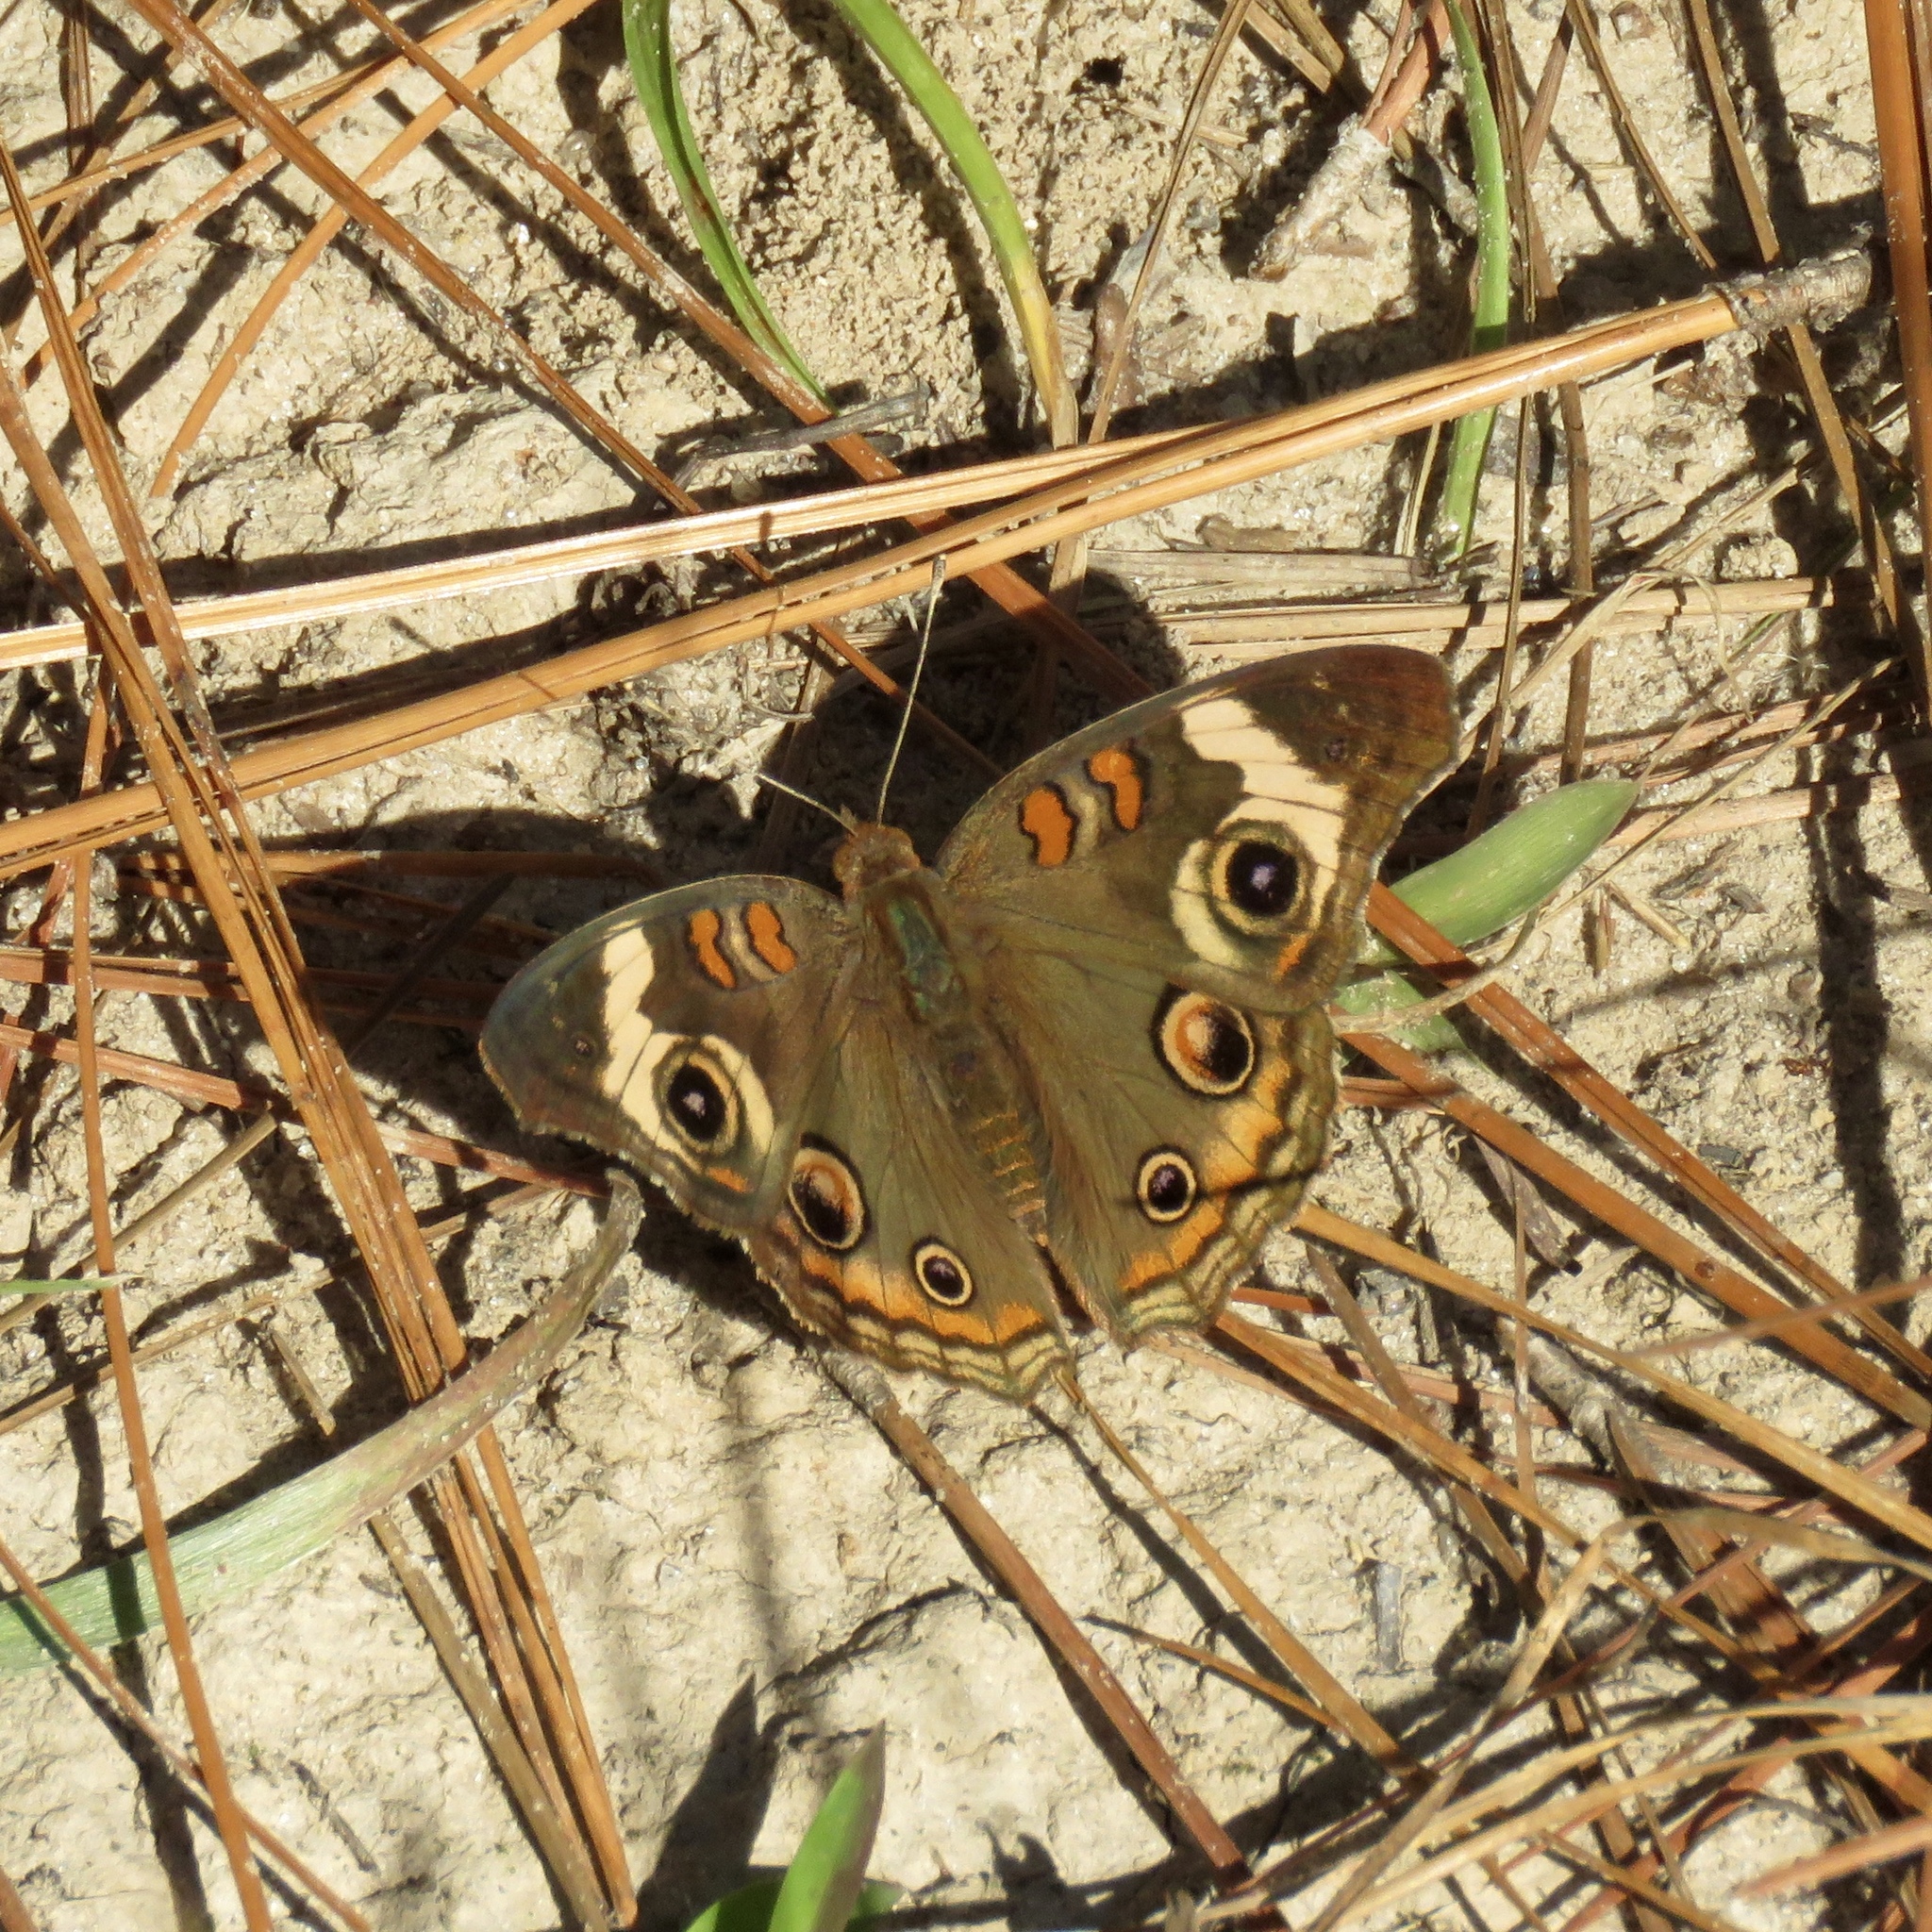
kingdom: Animalia
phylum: Arthropoda
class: Insecta
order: Lepidoptera
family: Nymphalidae
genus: Junonia
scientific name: Junonia coenia
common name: Common buckeye
